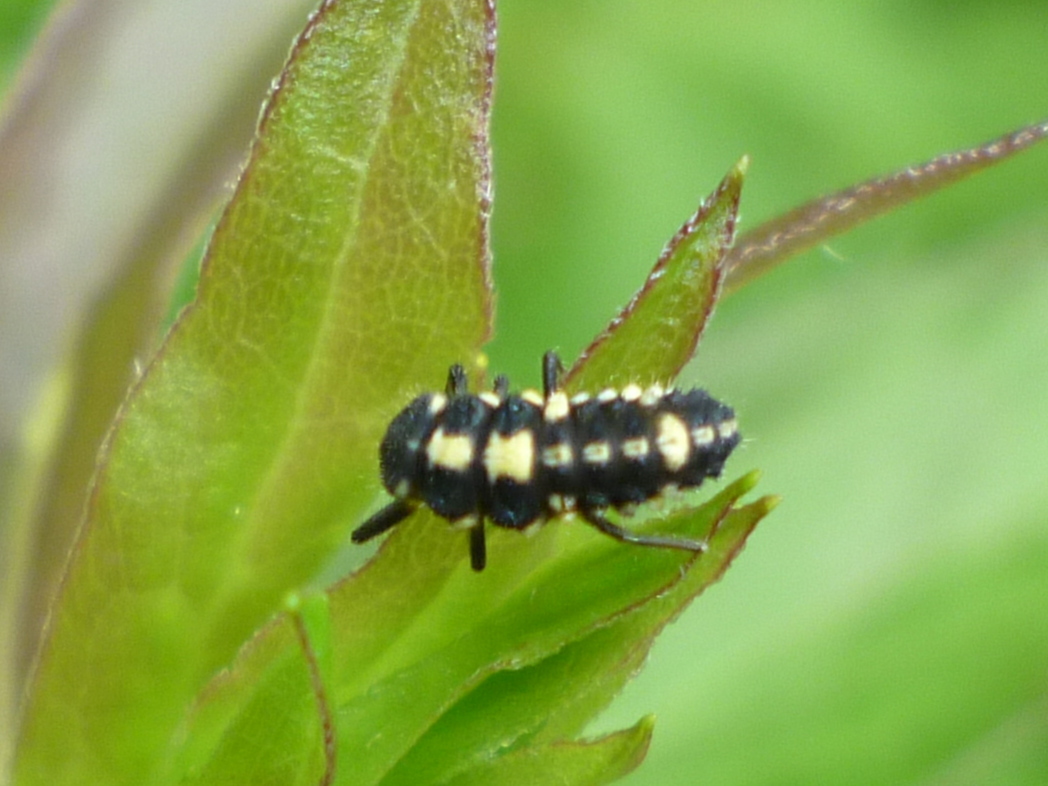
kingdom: Animalia
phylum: Arthropoda
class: Insecta
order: Coleoptera
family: Coccinellidae
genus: Propylaea
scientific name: Propylaea quatuordecimpunctata
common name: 14-spotted ladybird beetle
